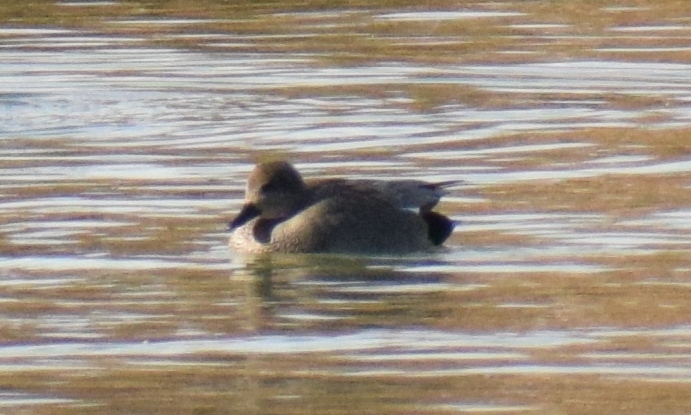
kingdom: Animalia
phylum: Chordata
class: Aves
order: Anseriformes
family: Anatidae
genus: Mareca
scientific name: Mareca strepera
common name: Gadwall
